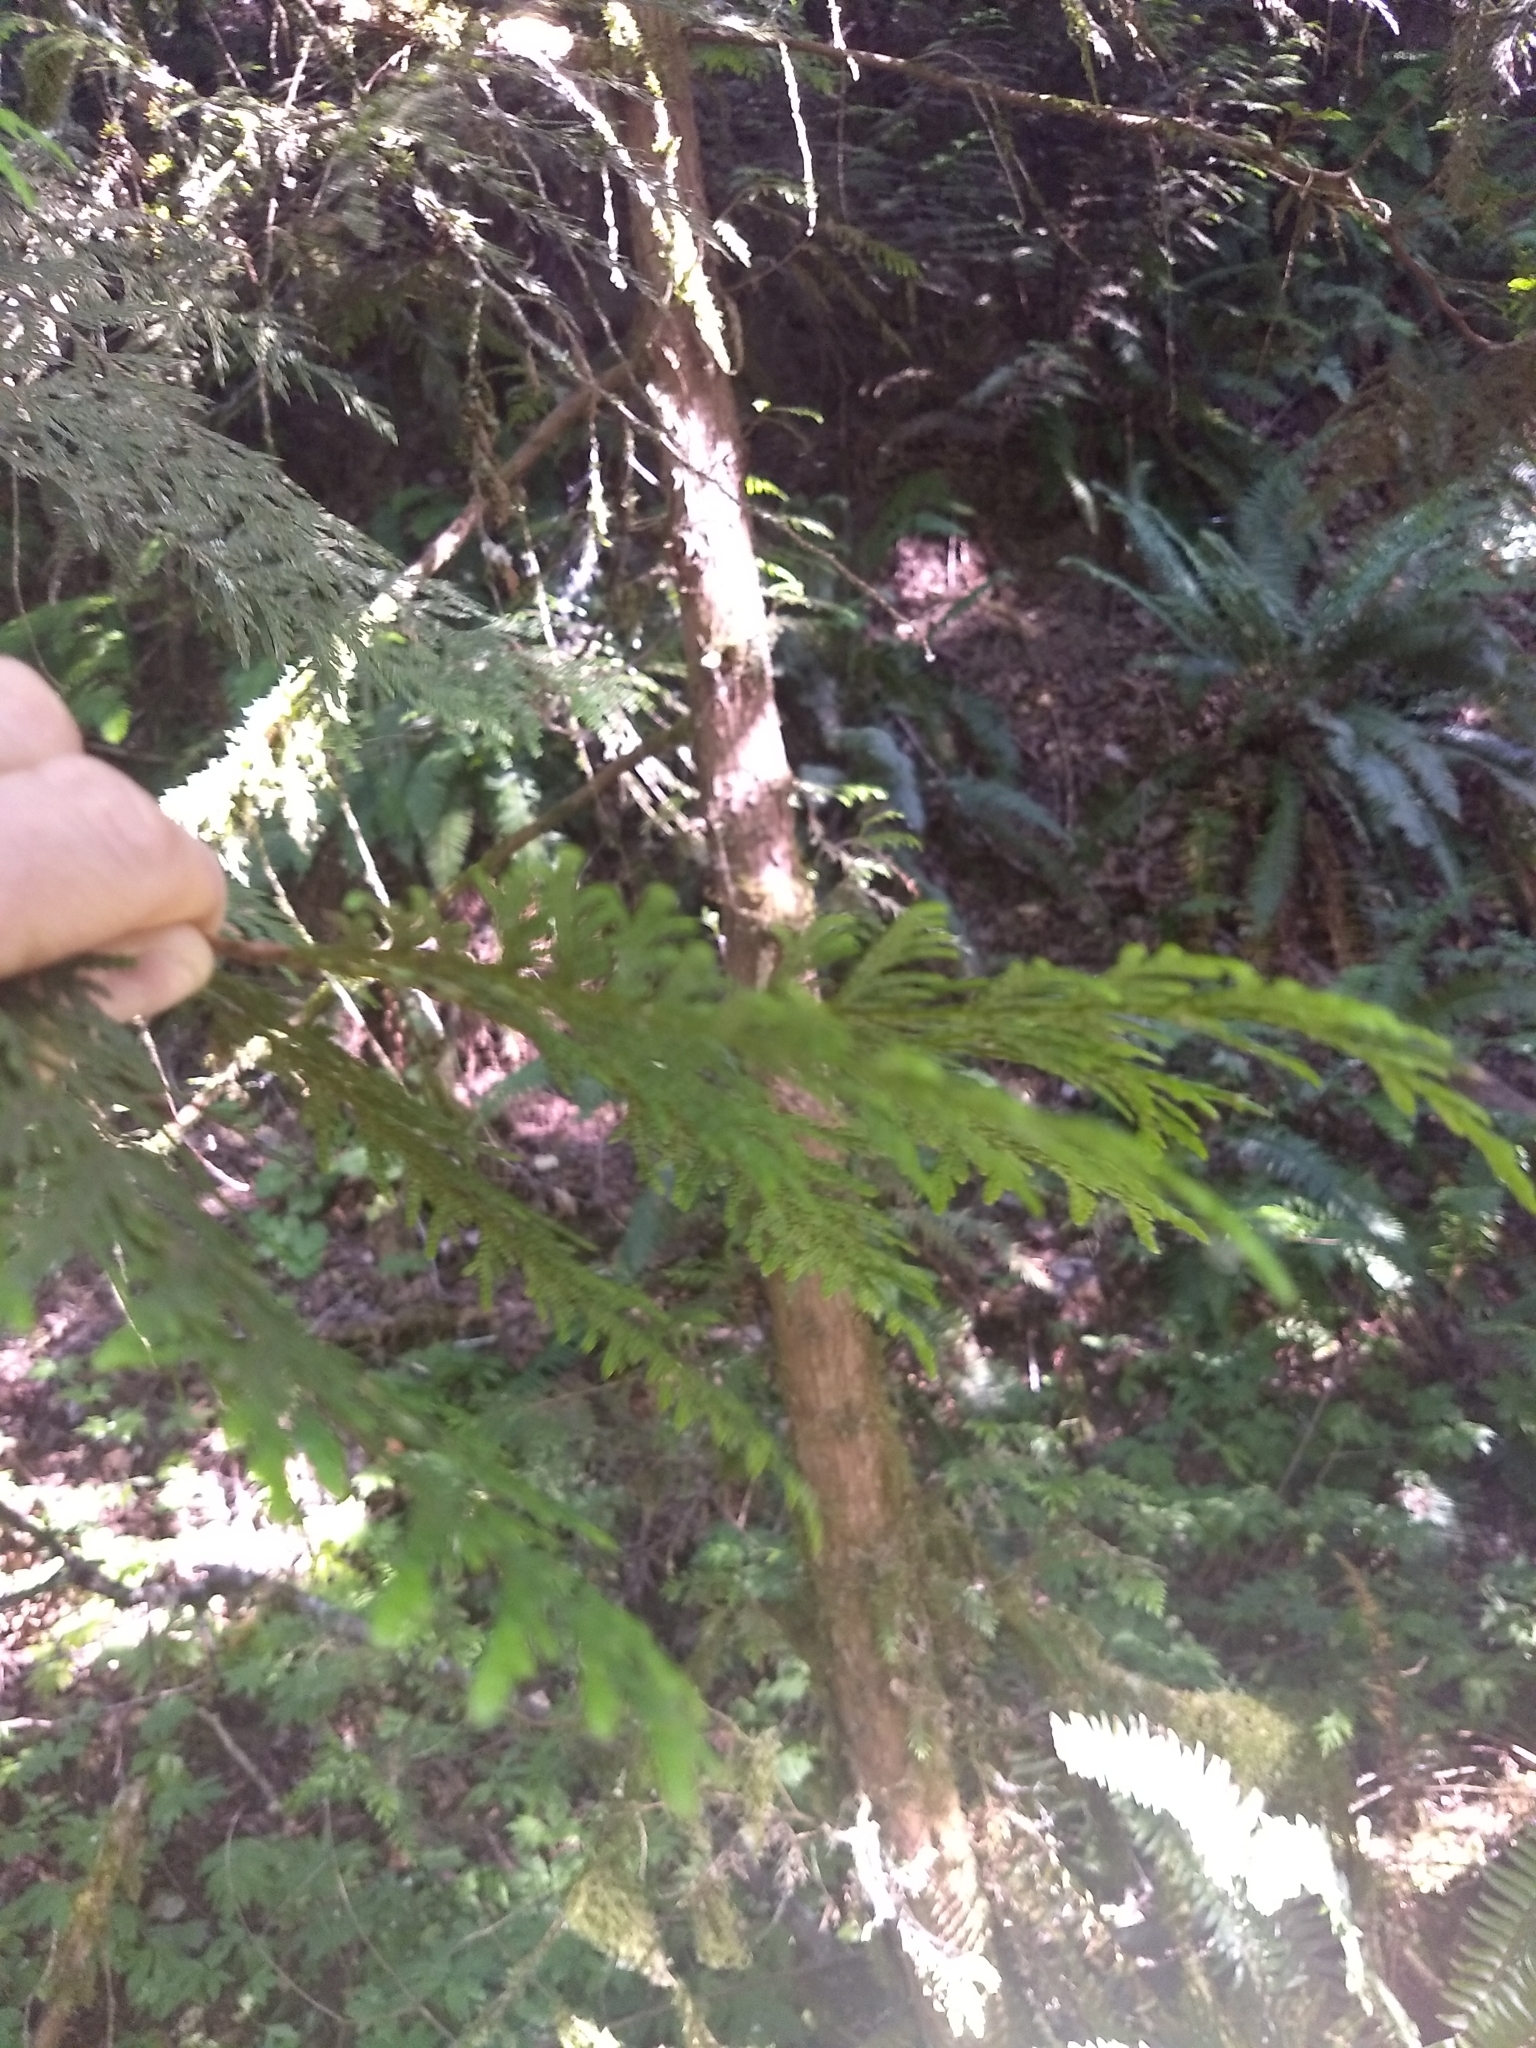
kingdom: Plantae
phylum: Tracheophyta
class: Pinopsida
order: Pinales
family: Cupressaceae
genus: Thuja
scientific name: Thuja plicata
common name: Western red-cedar
